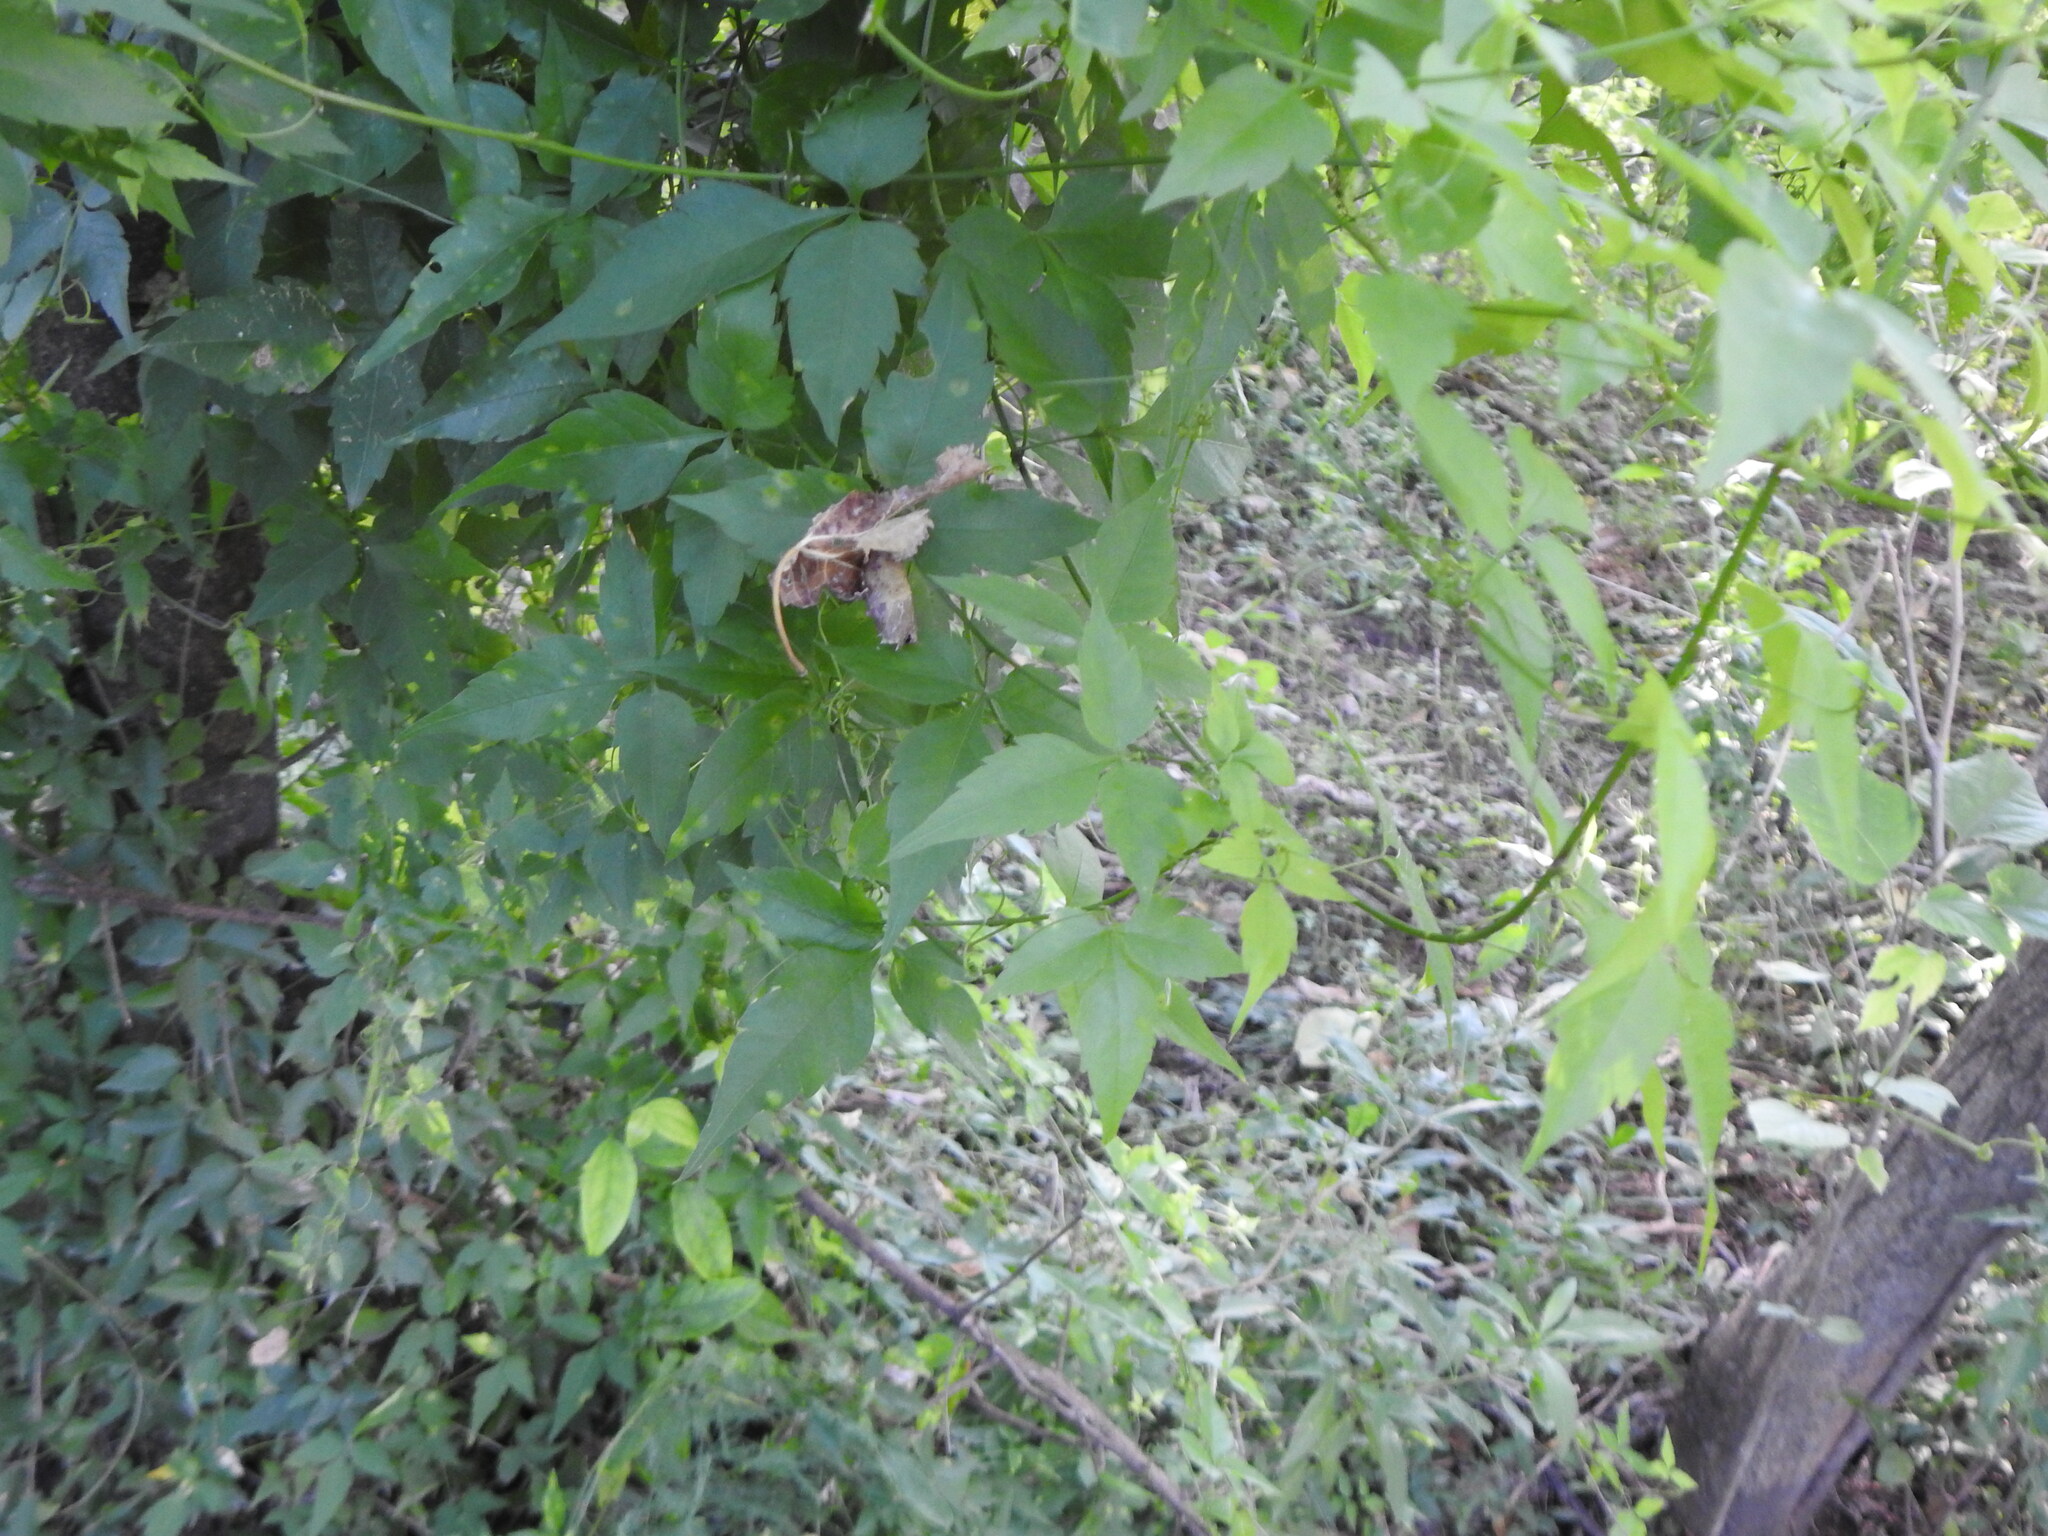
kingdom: Plantae
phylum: Tracheophyta
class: Magnoliopsida
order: Sapindales
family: Sapindaceae
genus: Urvillea
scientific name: Urvillea uniloba
